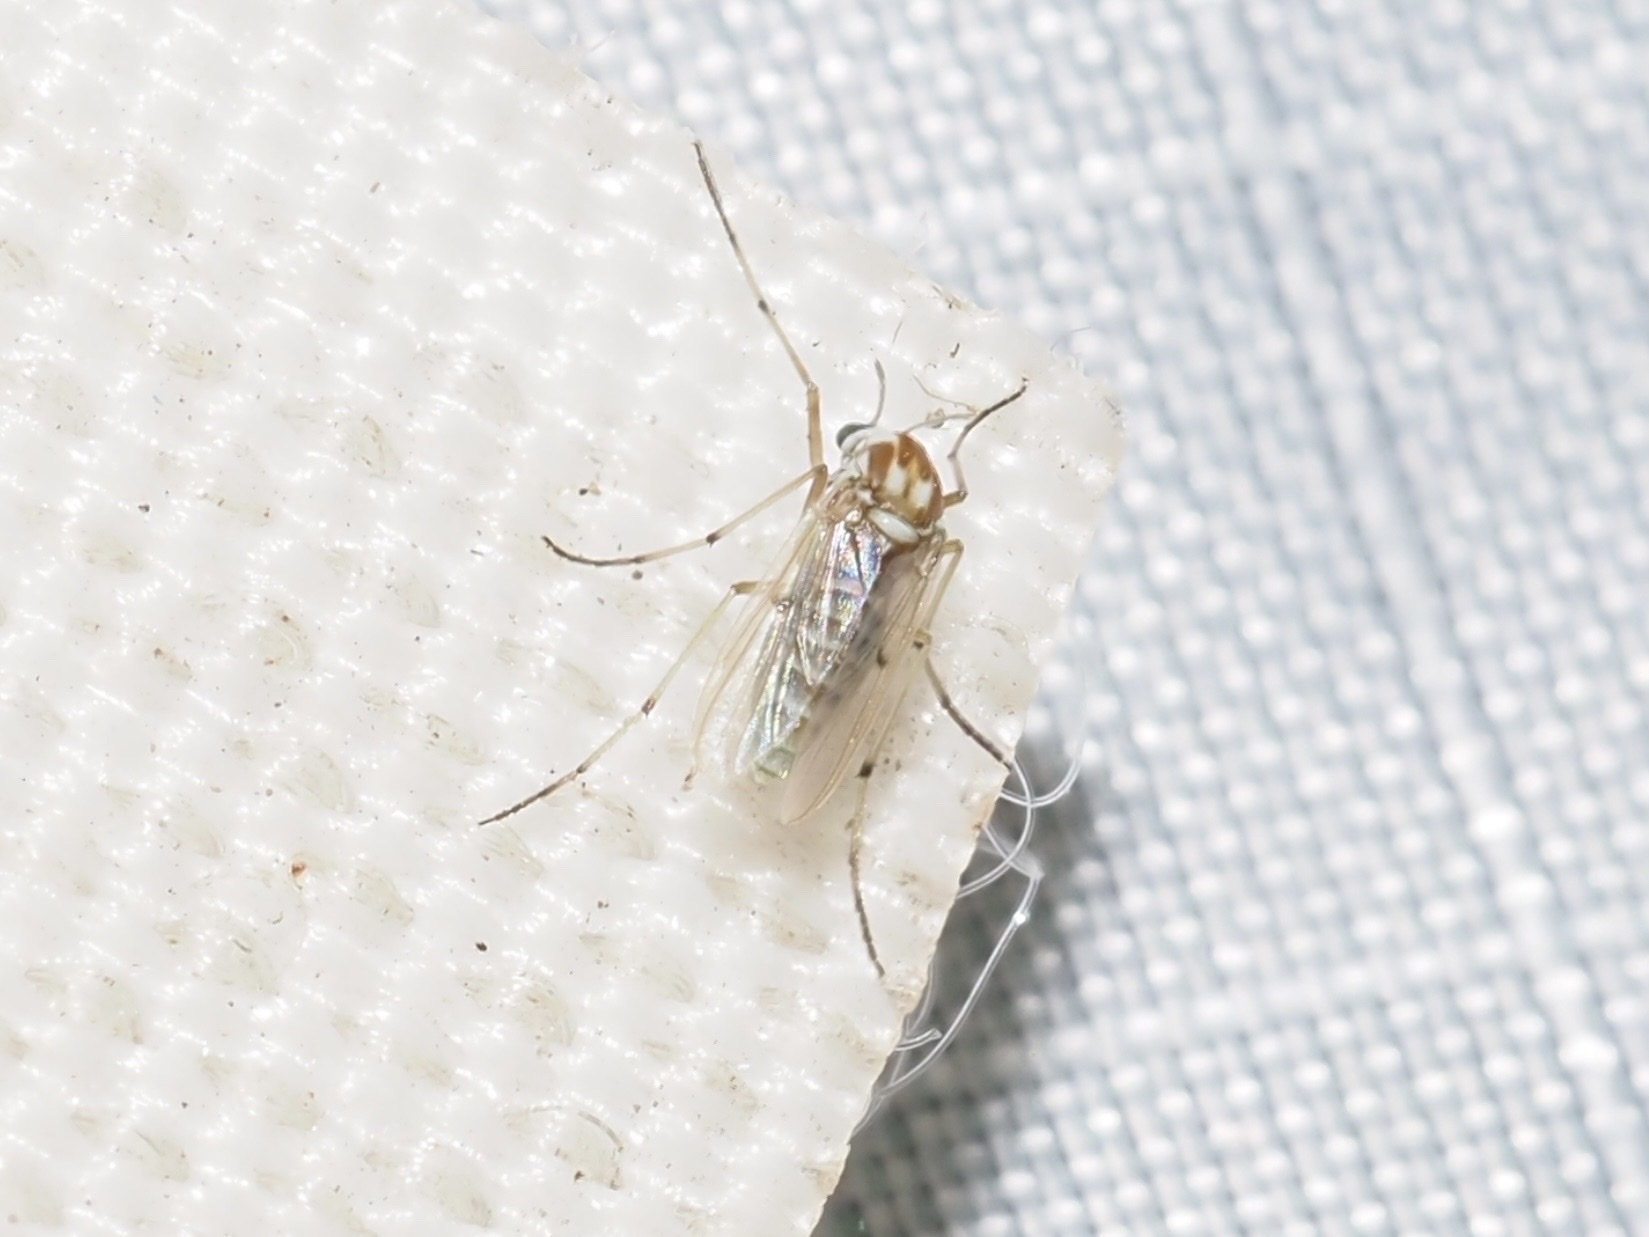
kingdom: Animalia
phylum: Arthropoda
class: Insecta
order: Diptera
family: Chironomidae
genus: Procladius
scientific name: Procladius bellus
